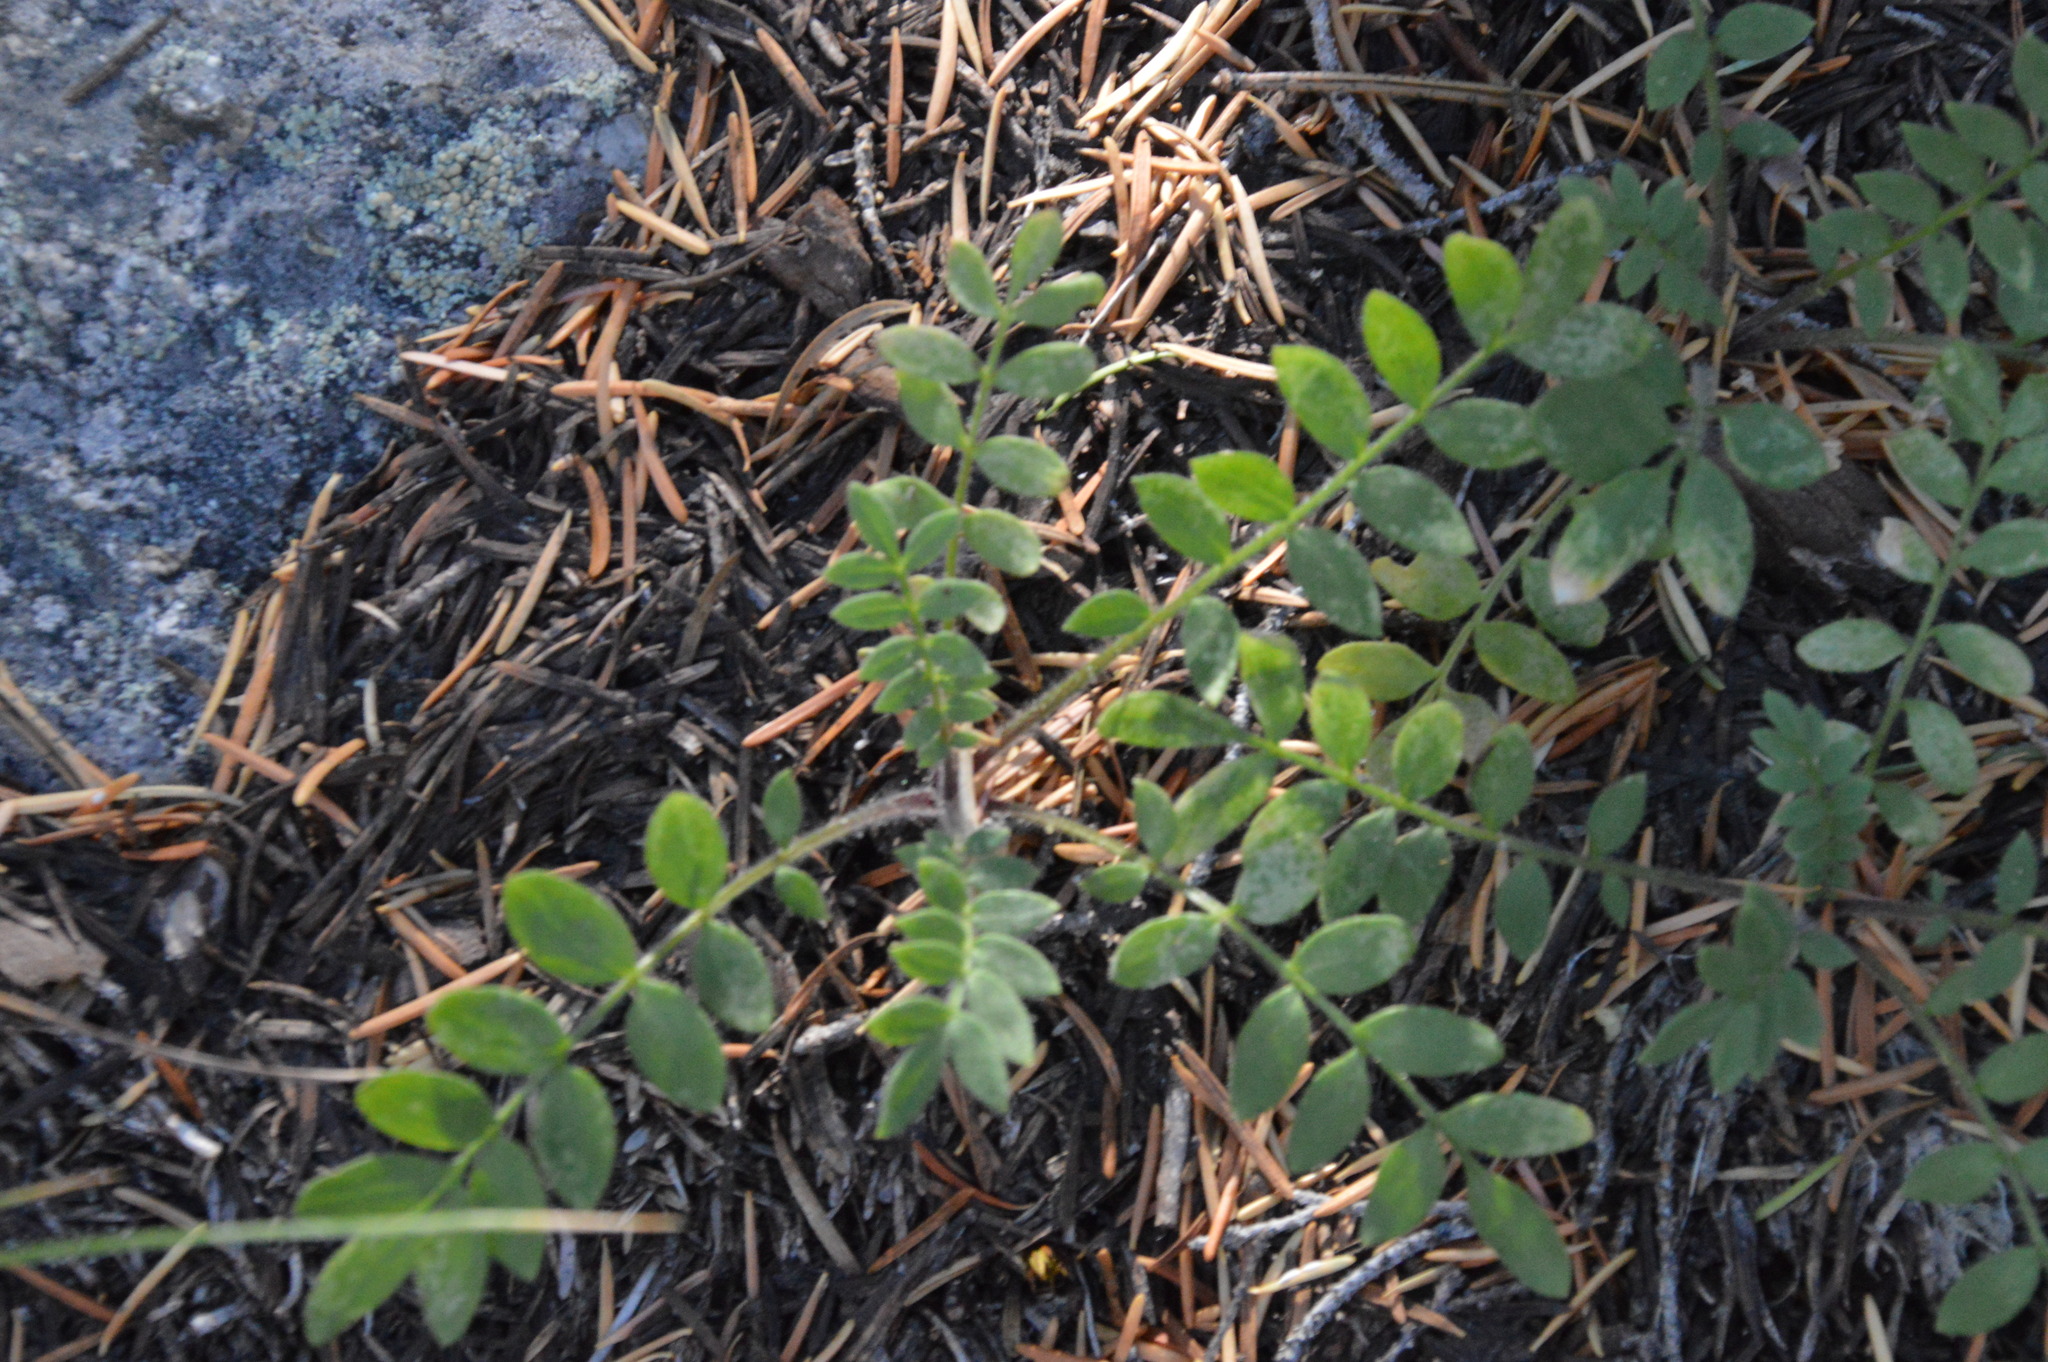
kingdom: Plantae
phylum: Tracheophyta
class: Magnoliopsida
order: Ericales
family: Polemoniaceae
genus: Polemonium
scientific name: Polemonium californicum
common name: California jacob's ladder
